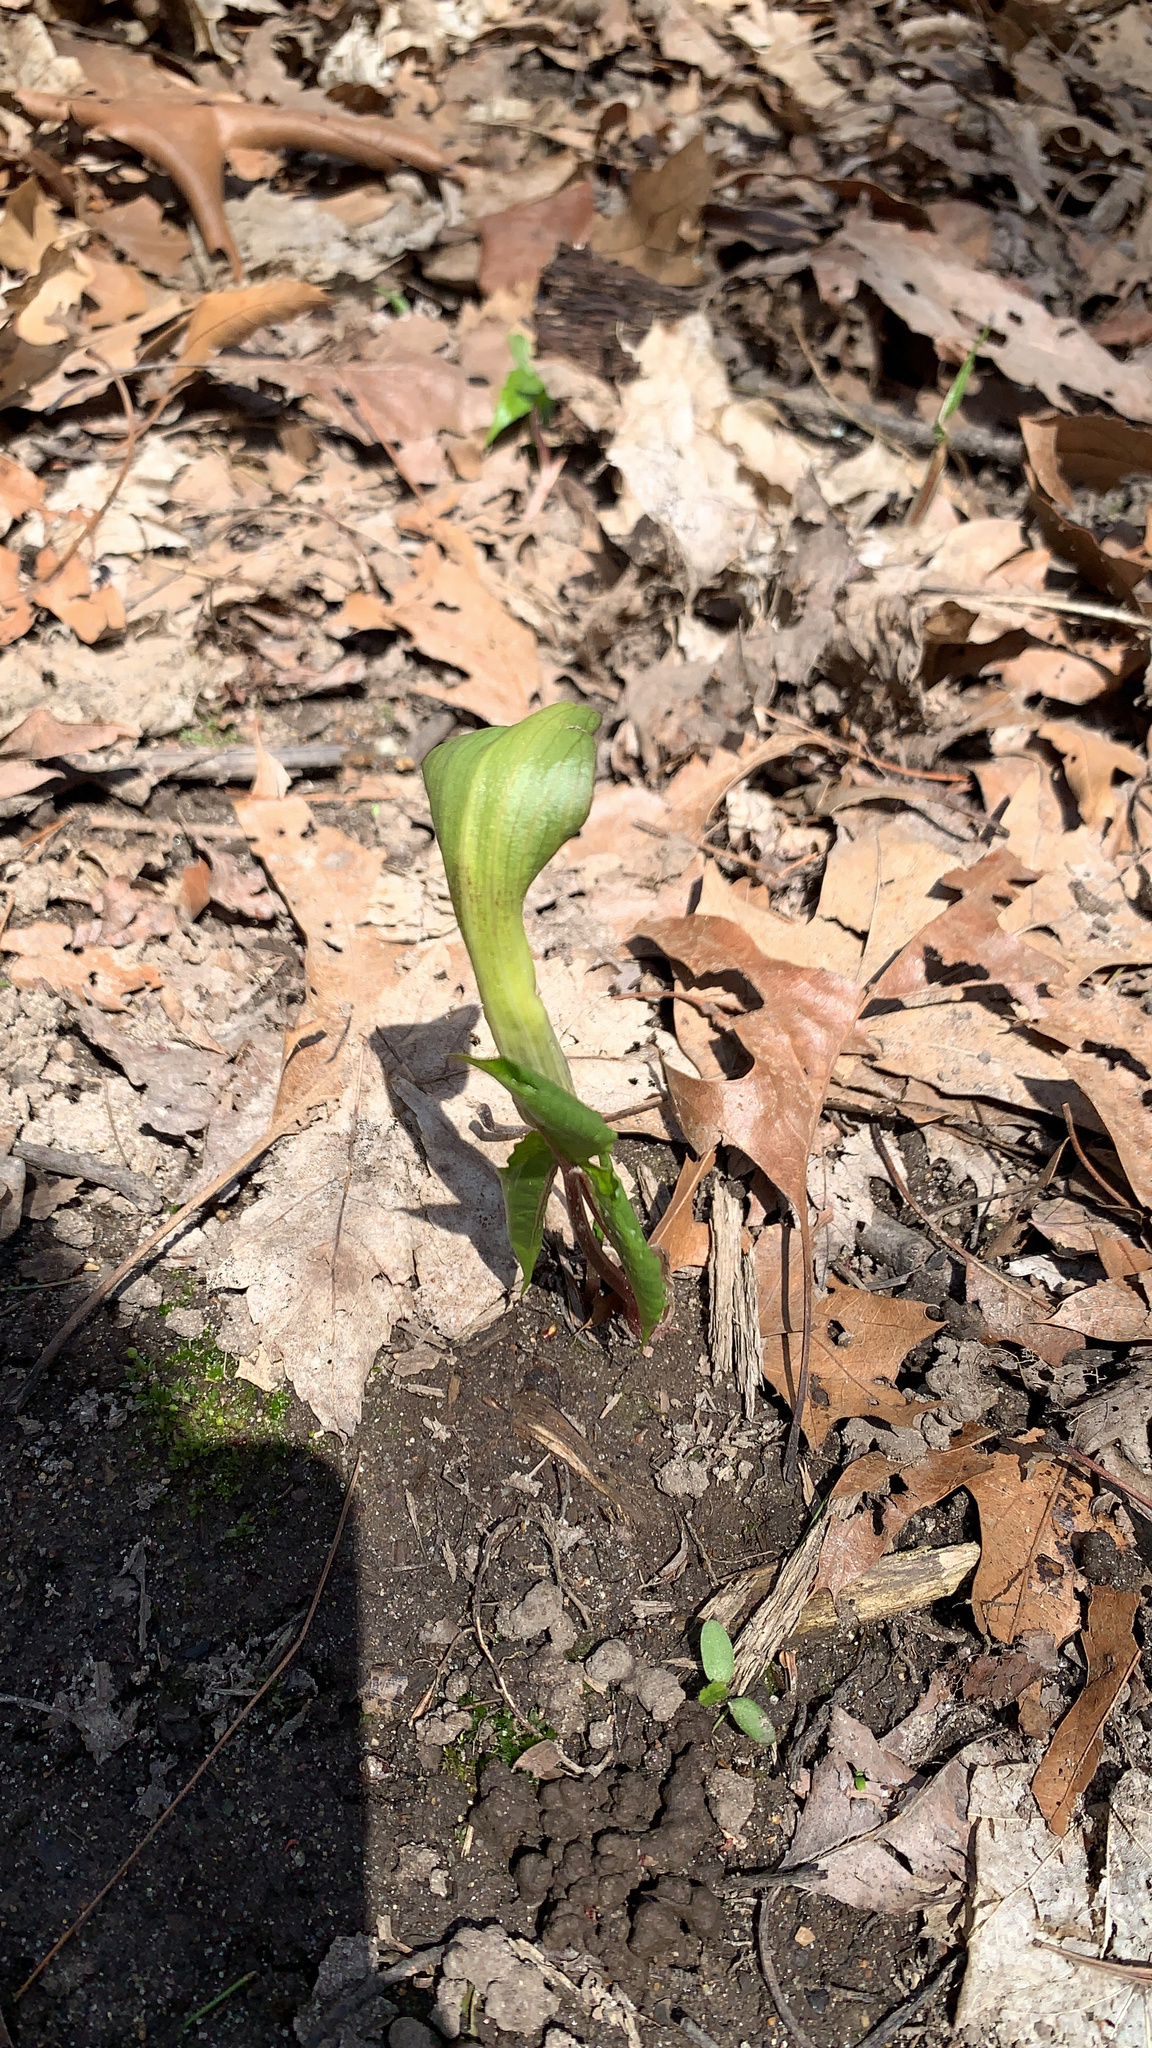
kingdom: Plantae
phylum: Tracheophyta
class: Liliopsida
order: Alismatales
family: Araceae
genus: Arisaema
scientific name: Arisaema triphyllum
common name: Jack-in-the-pulpit
